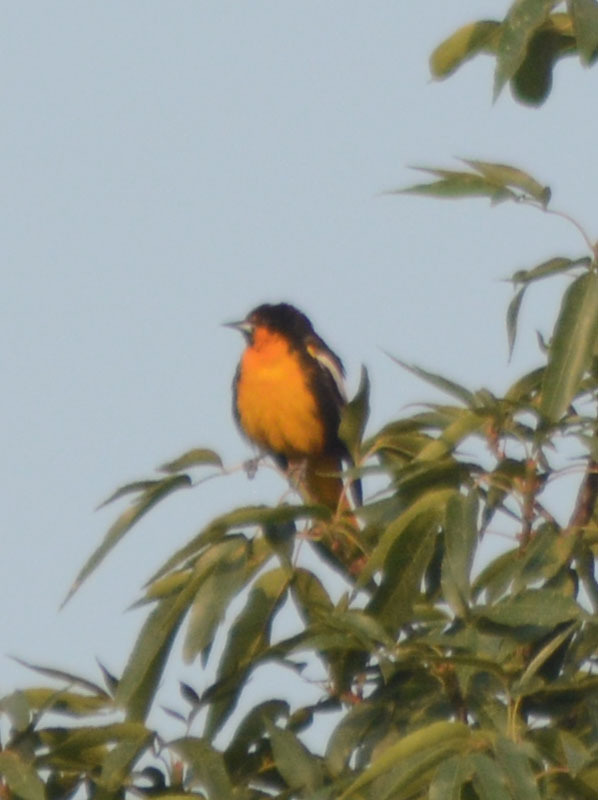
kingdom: Animalia
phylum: Chordata
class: Aves
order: Passeriformes
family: Icteridae
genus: Icterus
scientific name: Icterus abeillei
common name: Black-backed oriole
